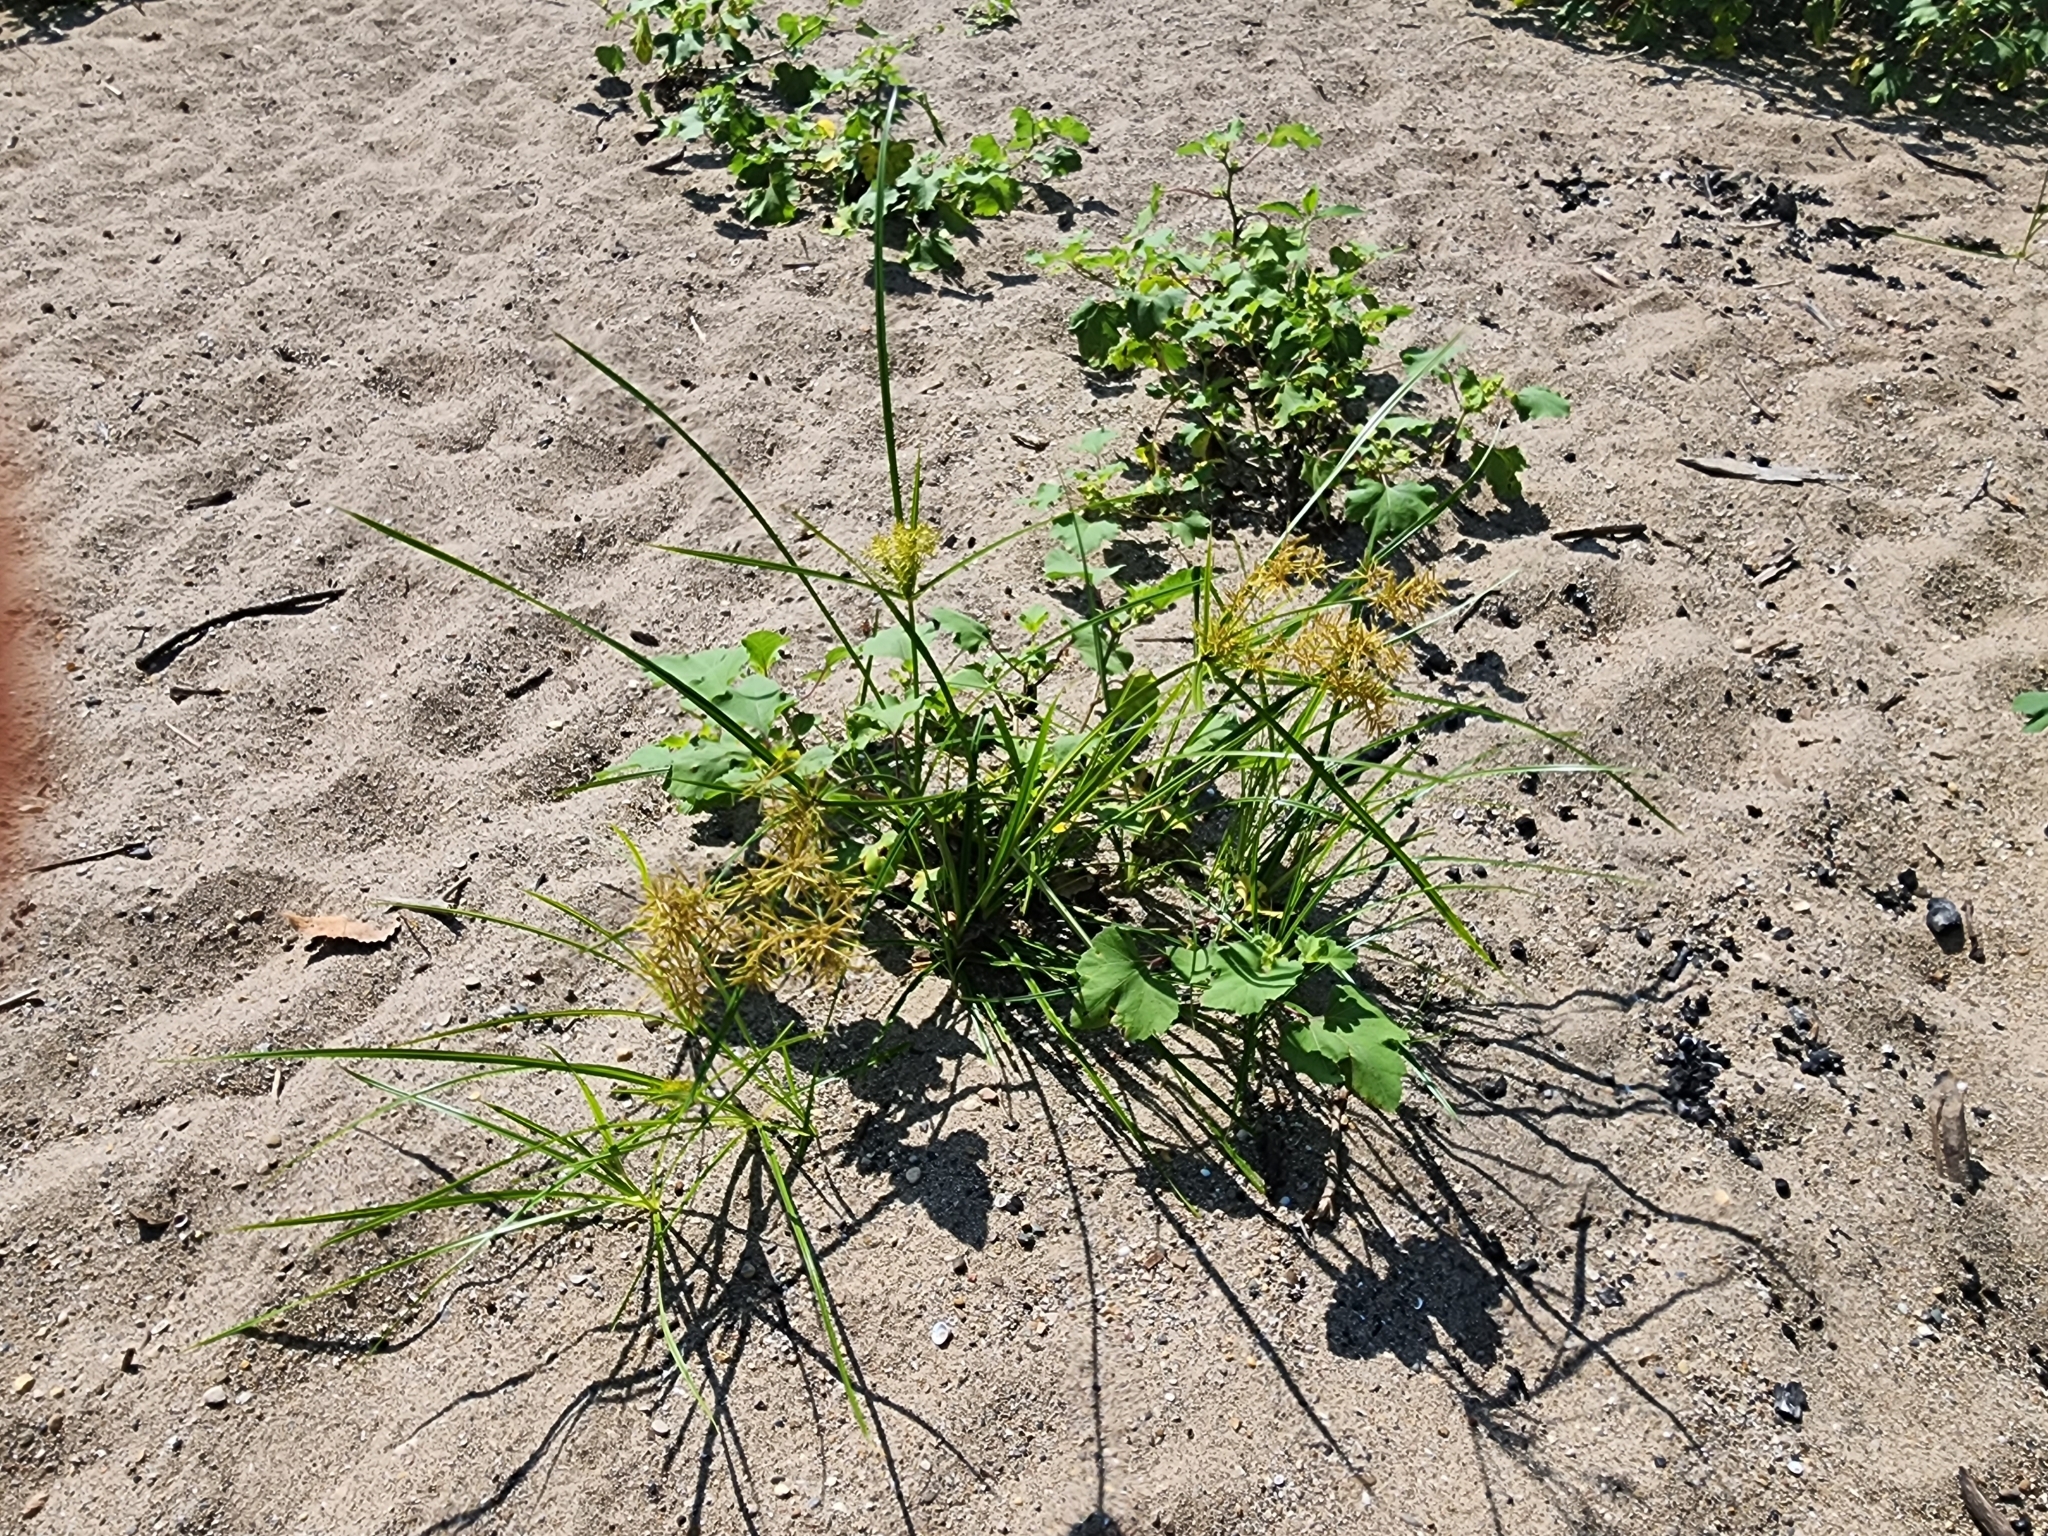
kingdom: Plantae
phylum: Tracheophyta
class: Liliopsida
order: Poales
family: Cyperaceae
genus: Cyperus
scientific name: Cyperus esculentus
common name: Yellow nutsedge
